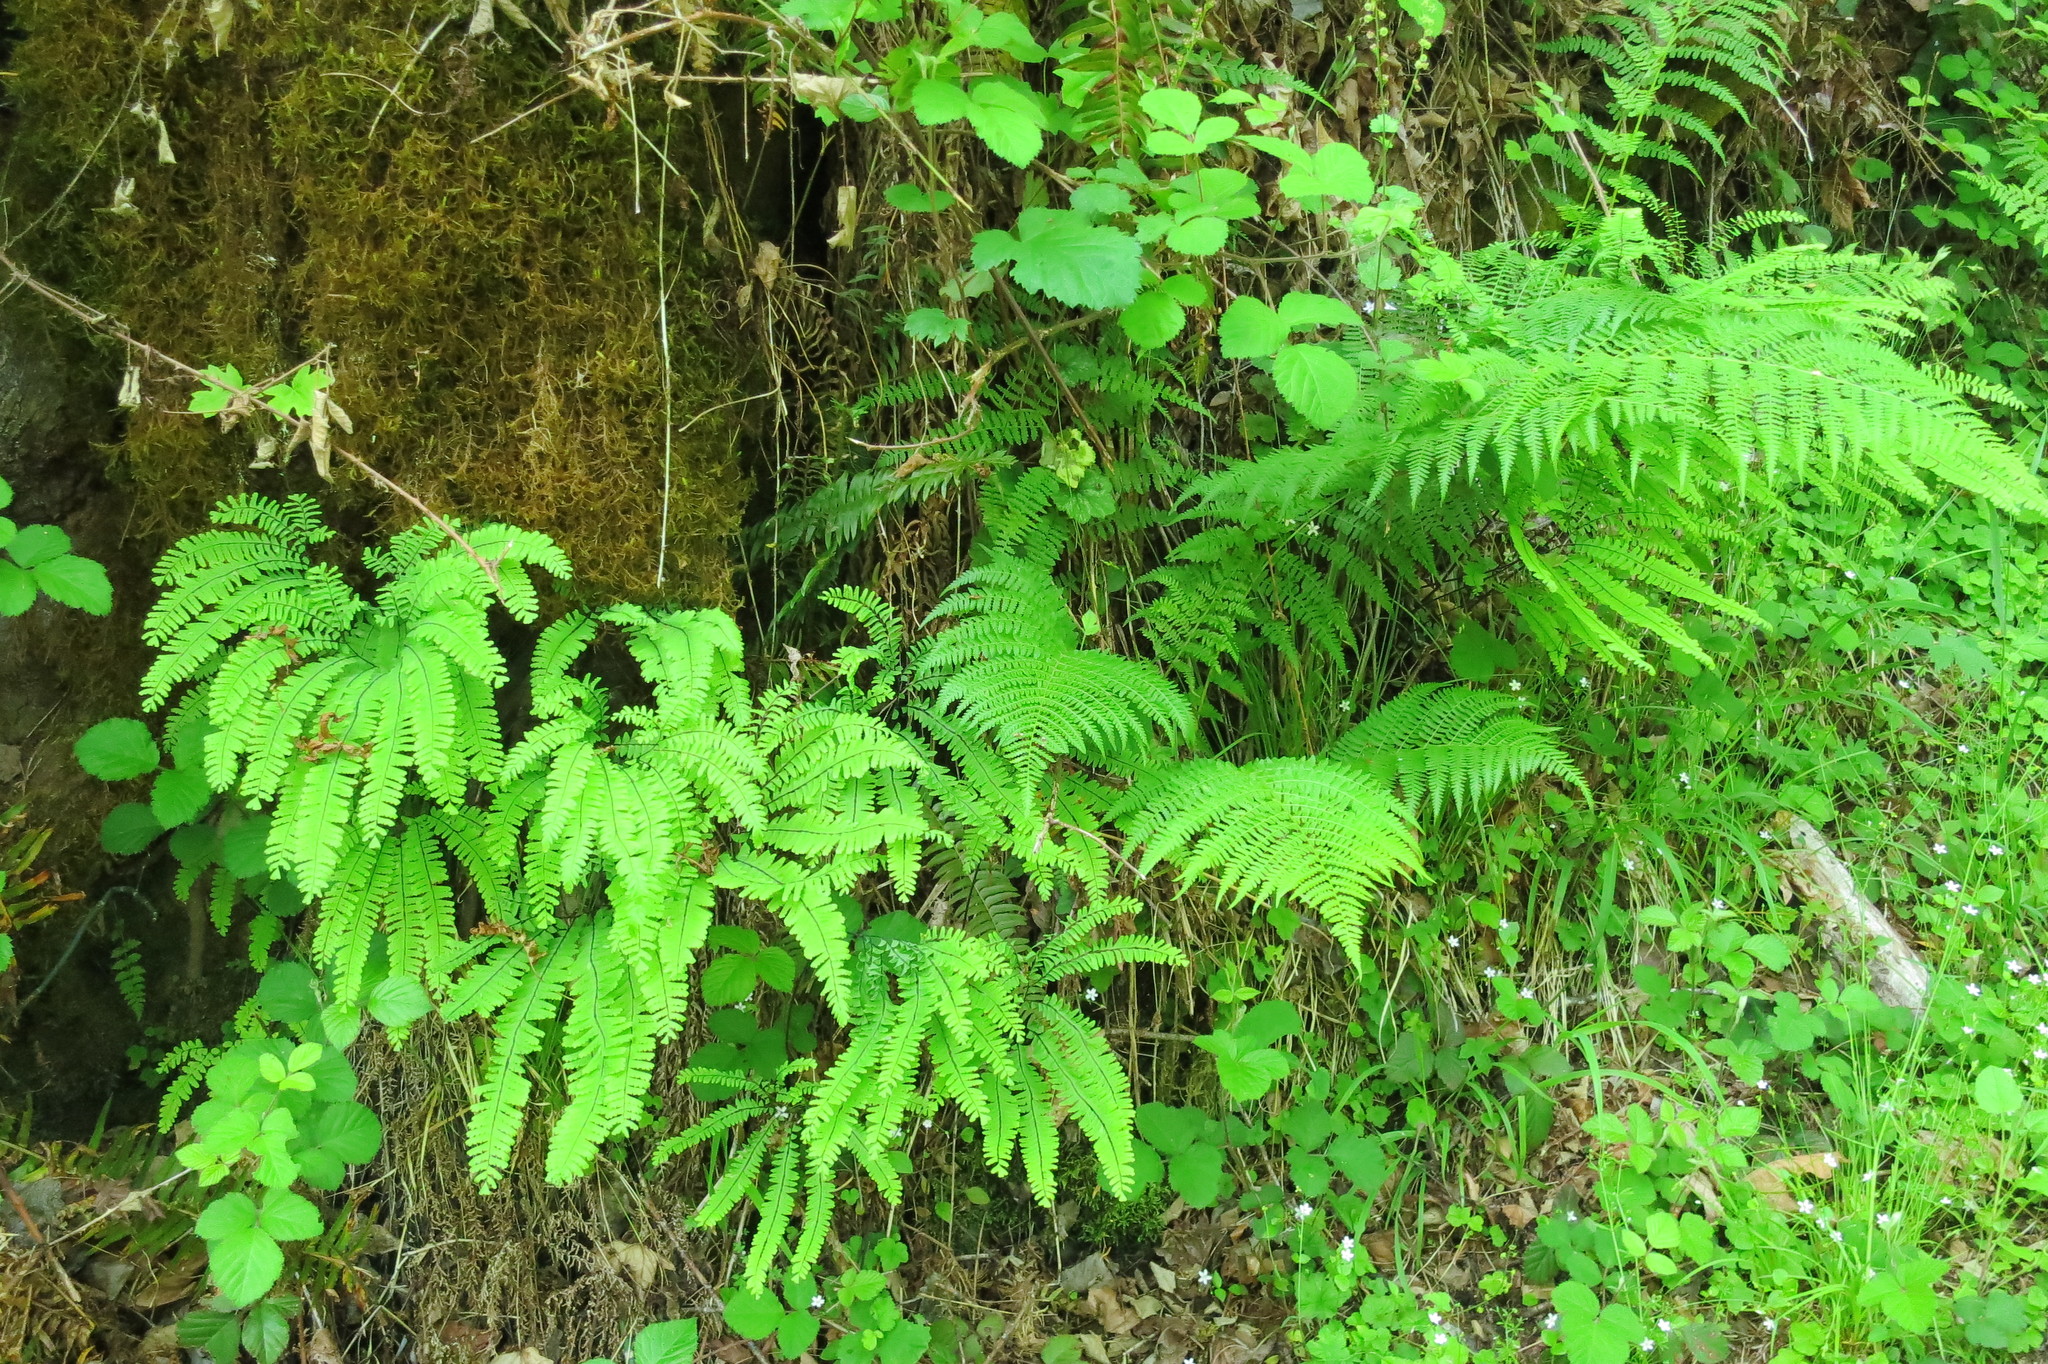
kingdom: Plantae
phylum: Tracheophyta
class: Polypodiopsida
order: Polypodiales
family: Pteridaceae
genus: Adiantum
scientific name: Adiantum aleuticum
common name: Aleutian maidenhair fern
